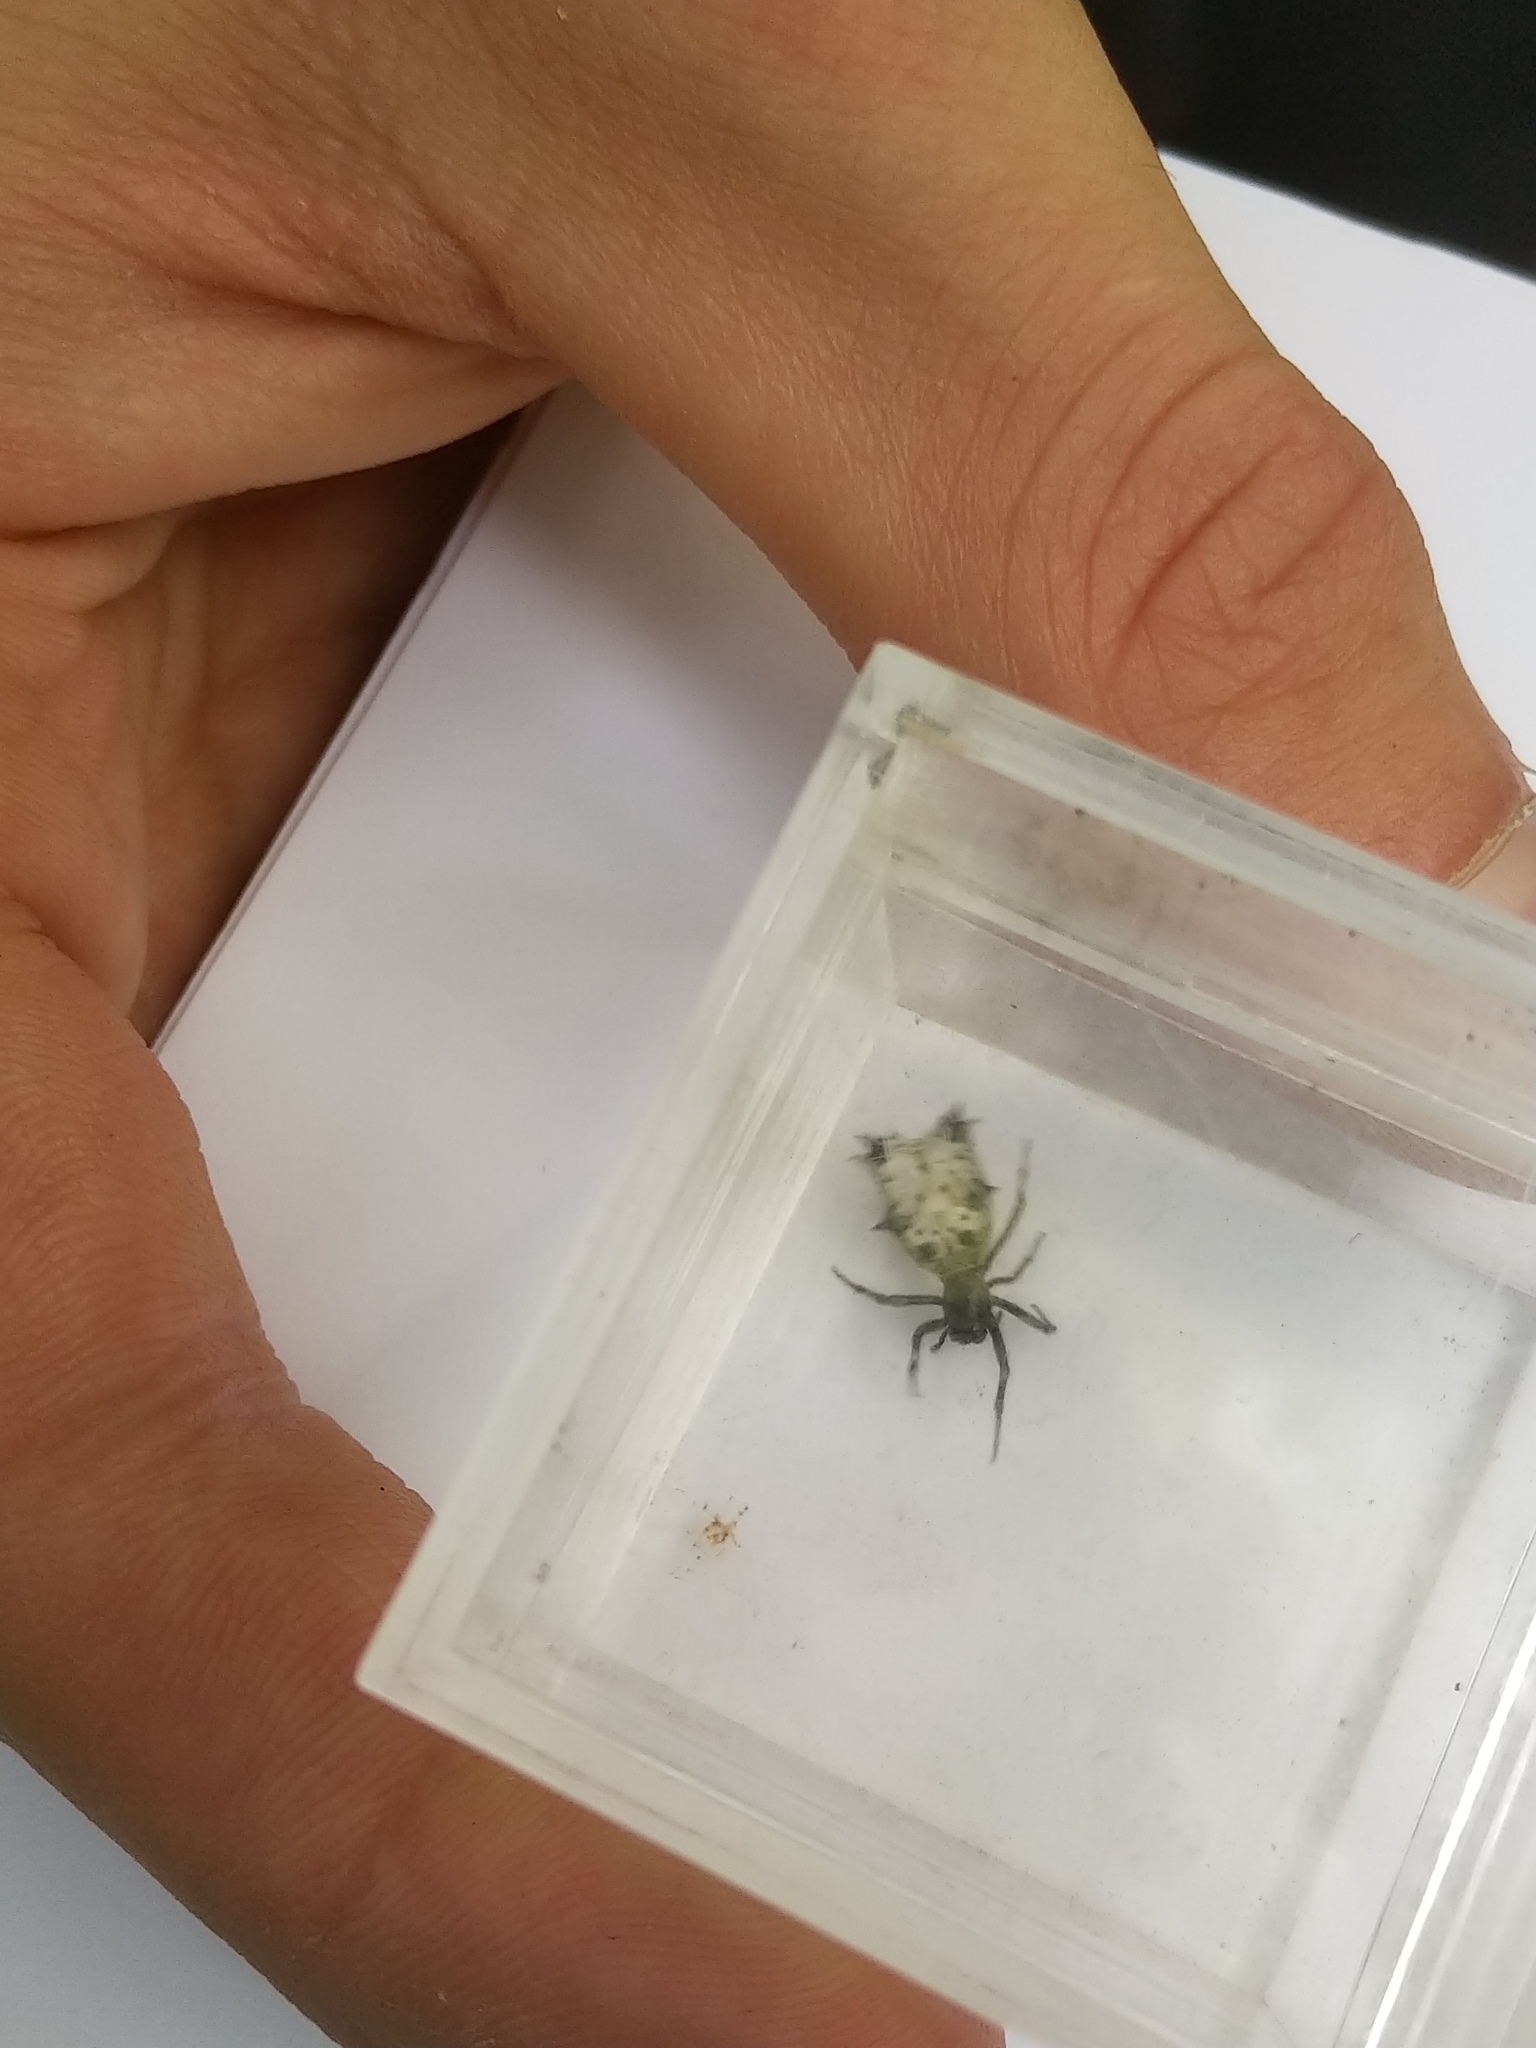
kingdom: Animalia
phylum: Arthropoda
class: Arachnida
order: Araneae
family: Araneidae
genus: Micrathena
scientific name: Micrathena gracilis
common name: Orb weavers
